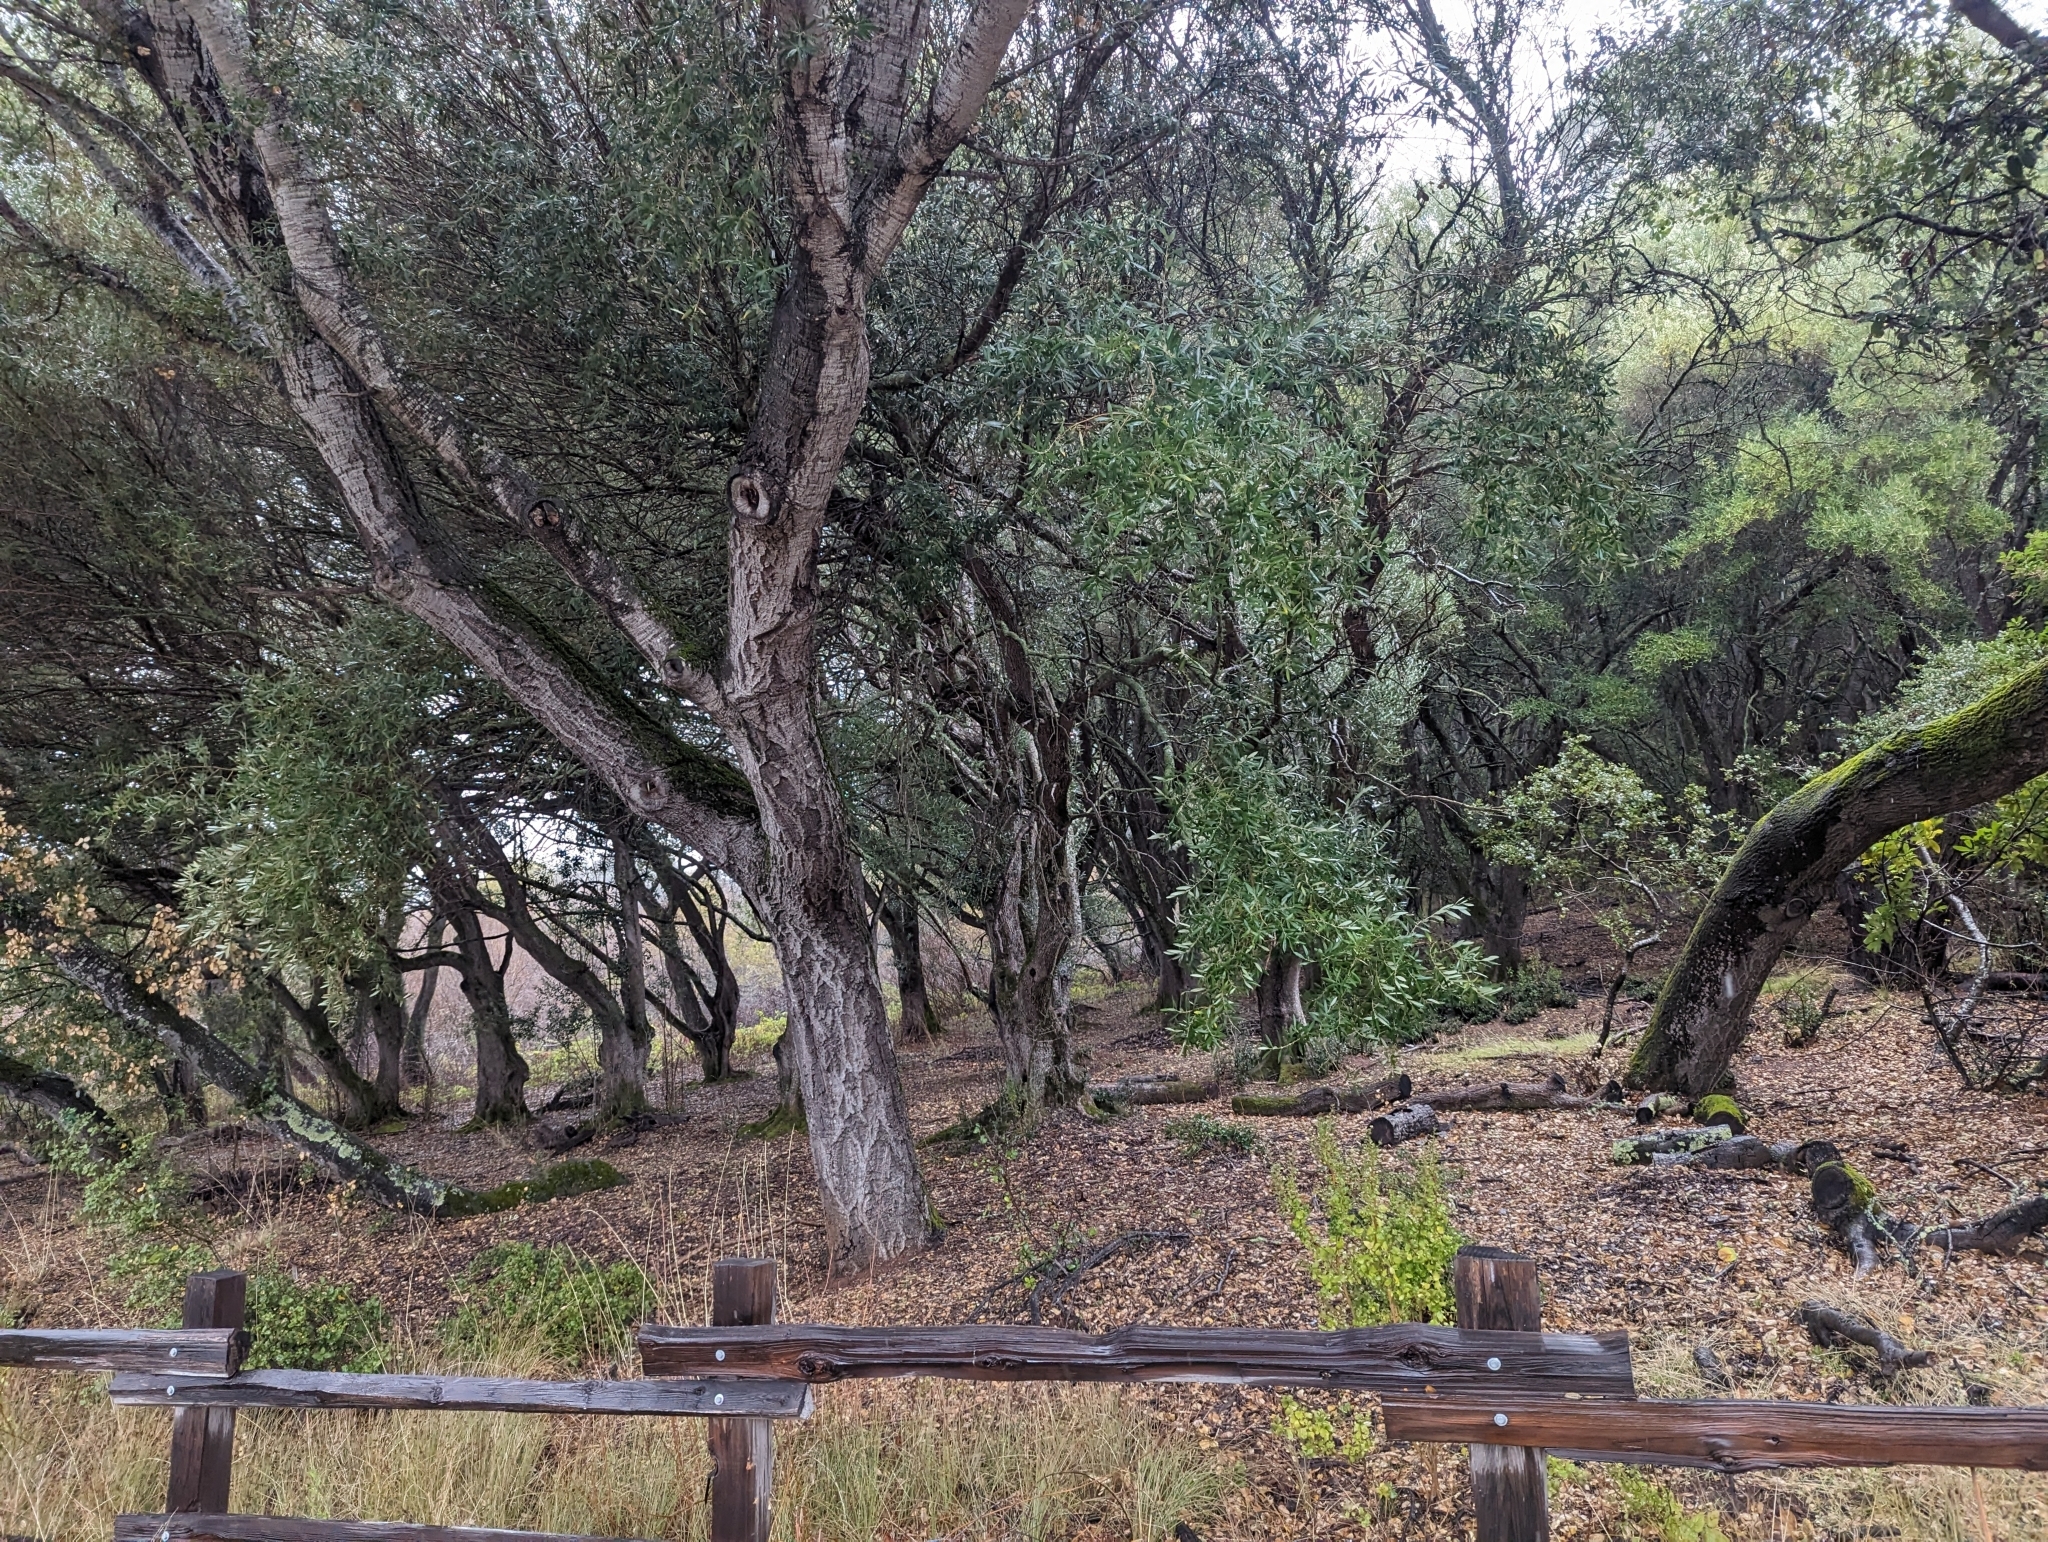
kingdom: Plantae
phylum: Tracheophyta
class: Magnoliopsida
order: Lamiales
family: Oleaceae
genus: Olea
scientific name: Olea europaea
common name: Olive
